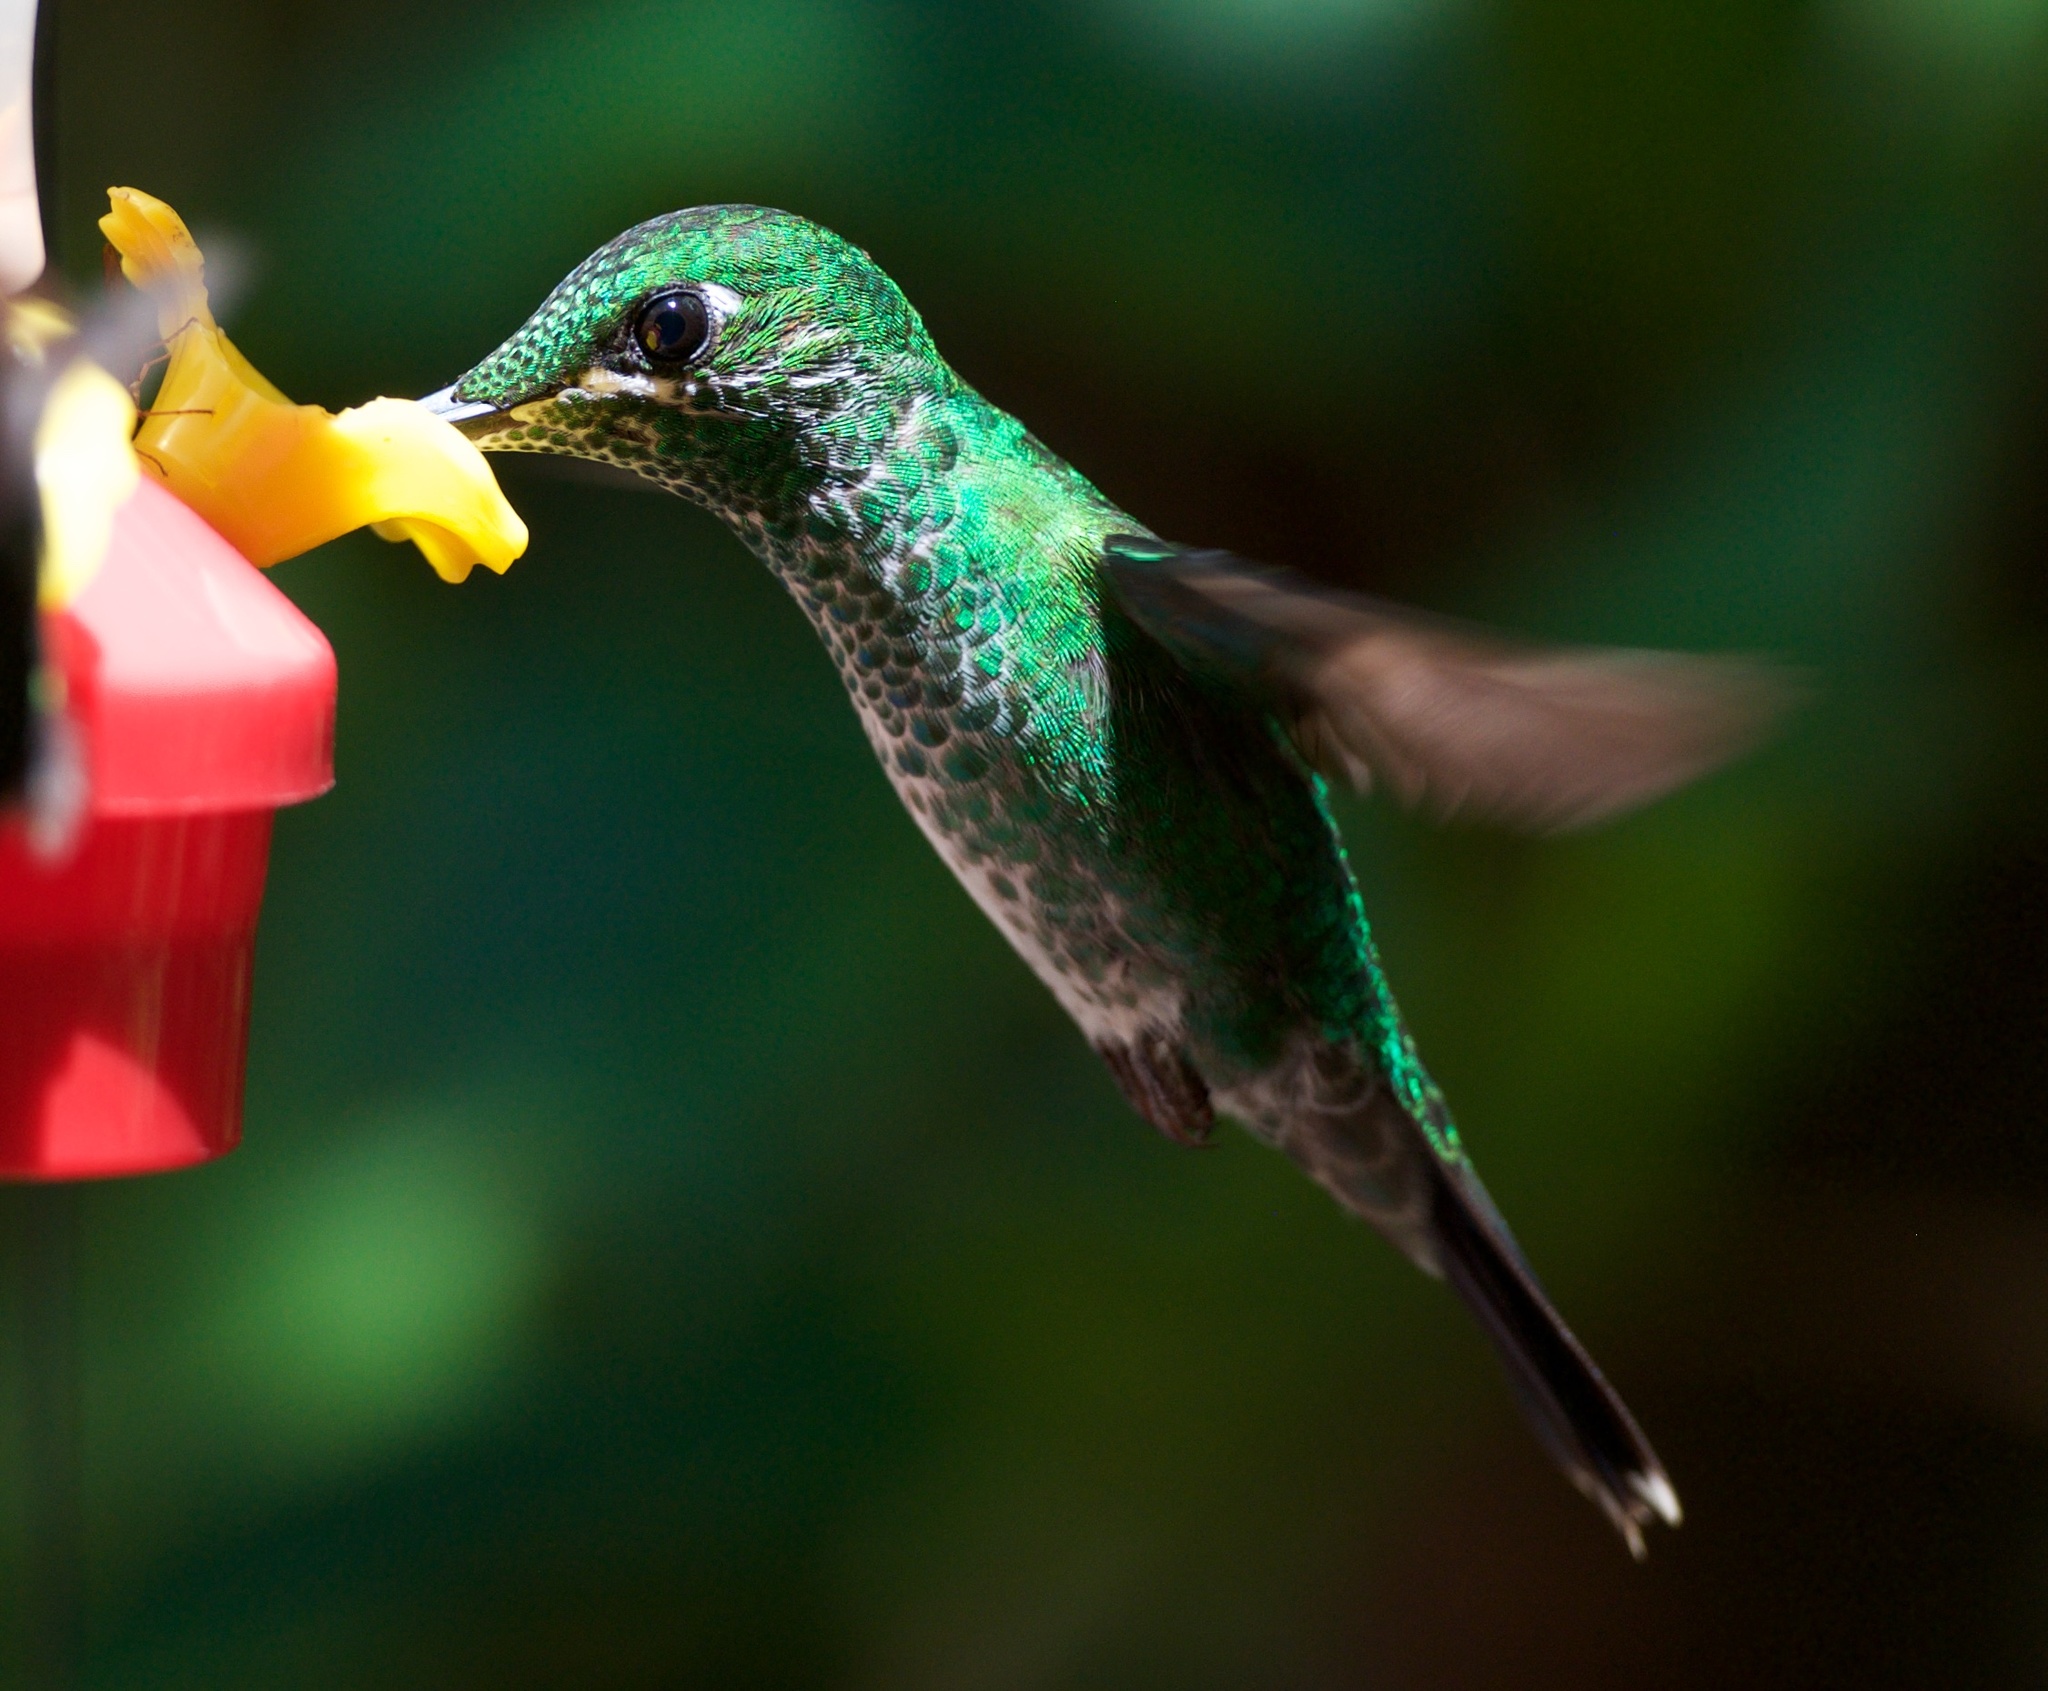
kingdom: Animalia
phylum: Chordata
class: Aves
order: Apodiformes
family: Trochilidae
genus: Heliodoxa
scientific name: Heliodoxa jacula
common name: Green-crowned brilliant
